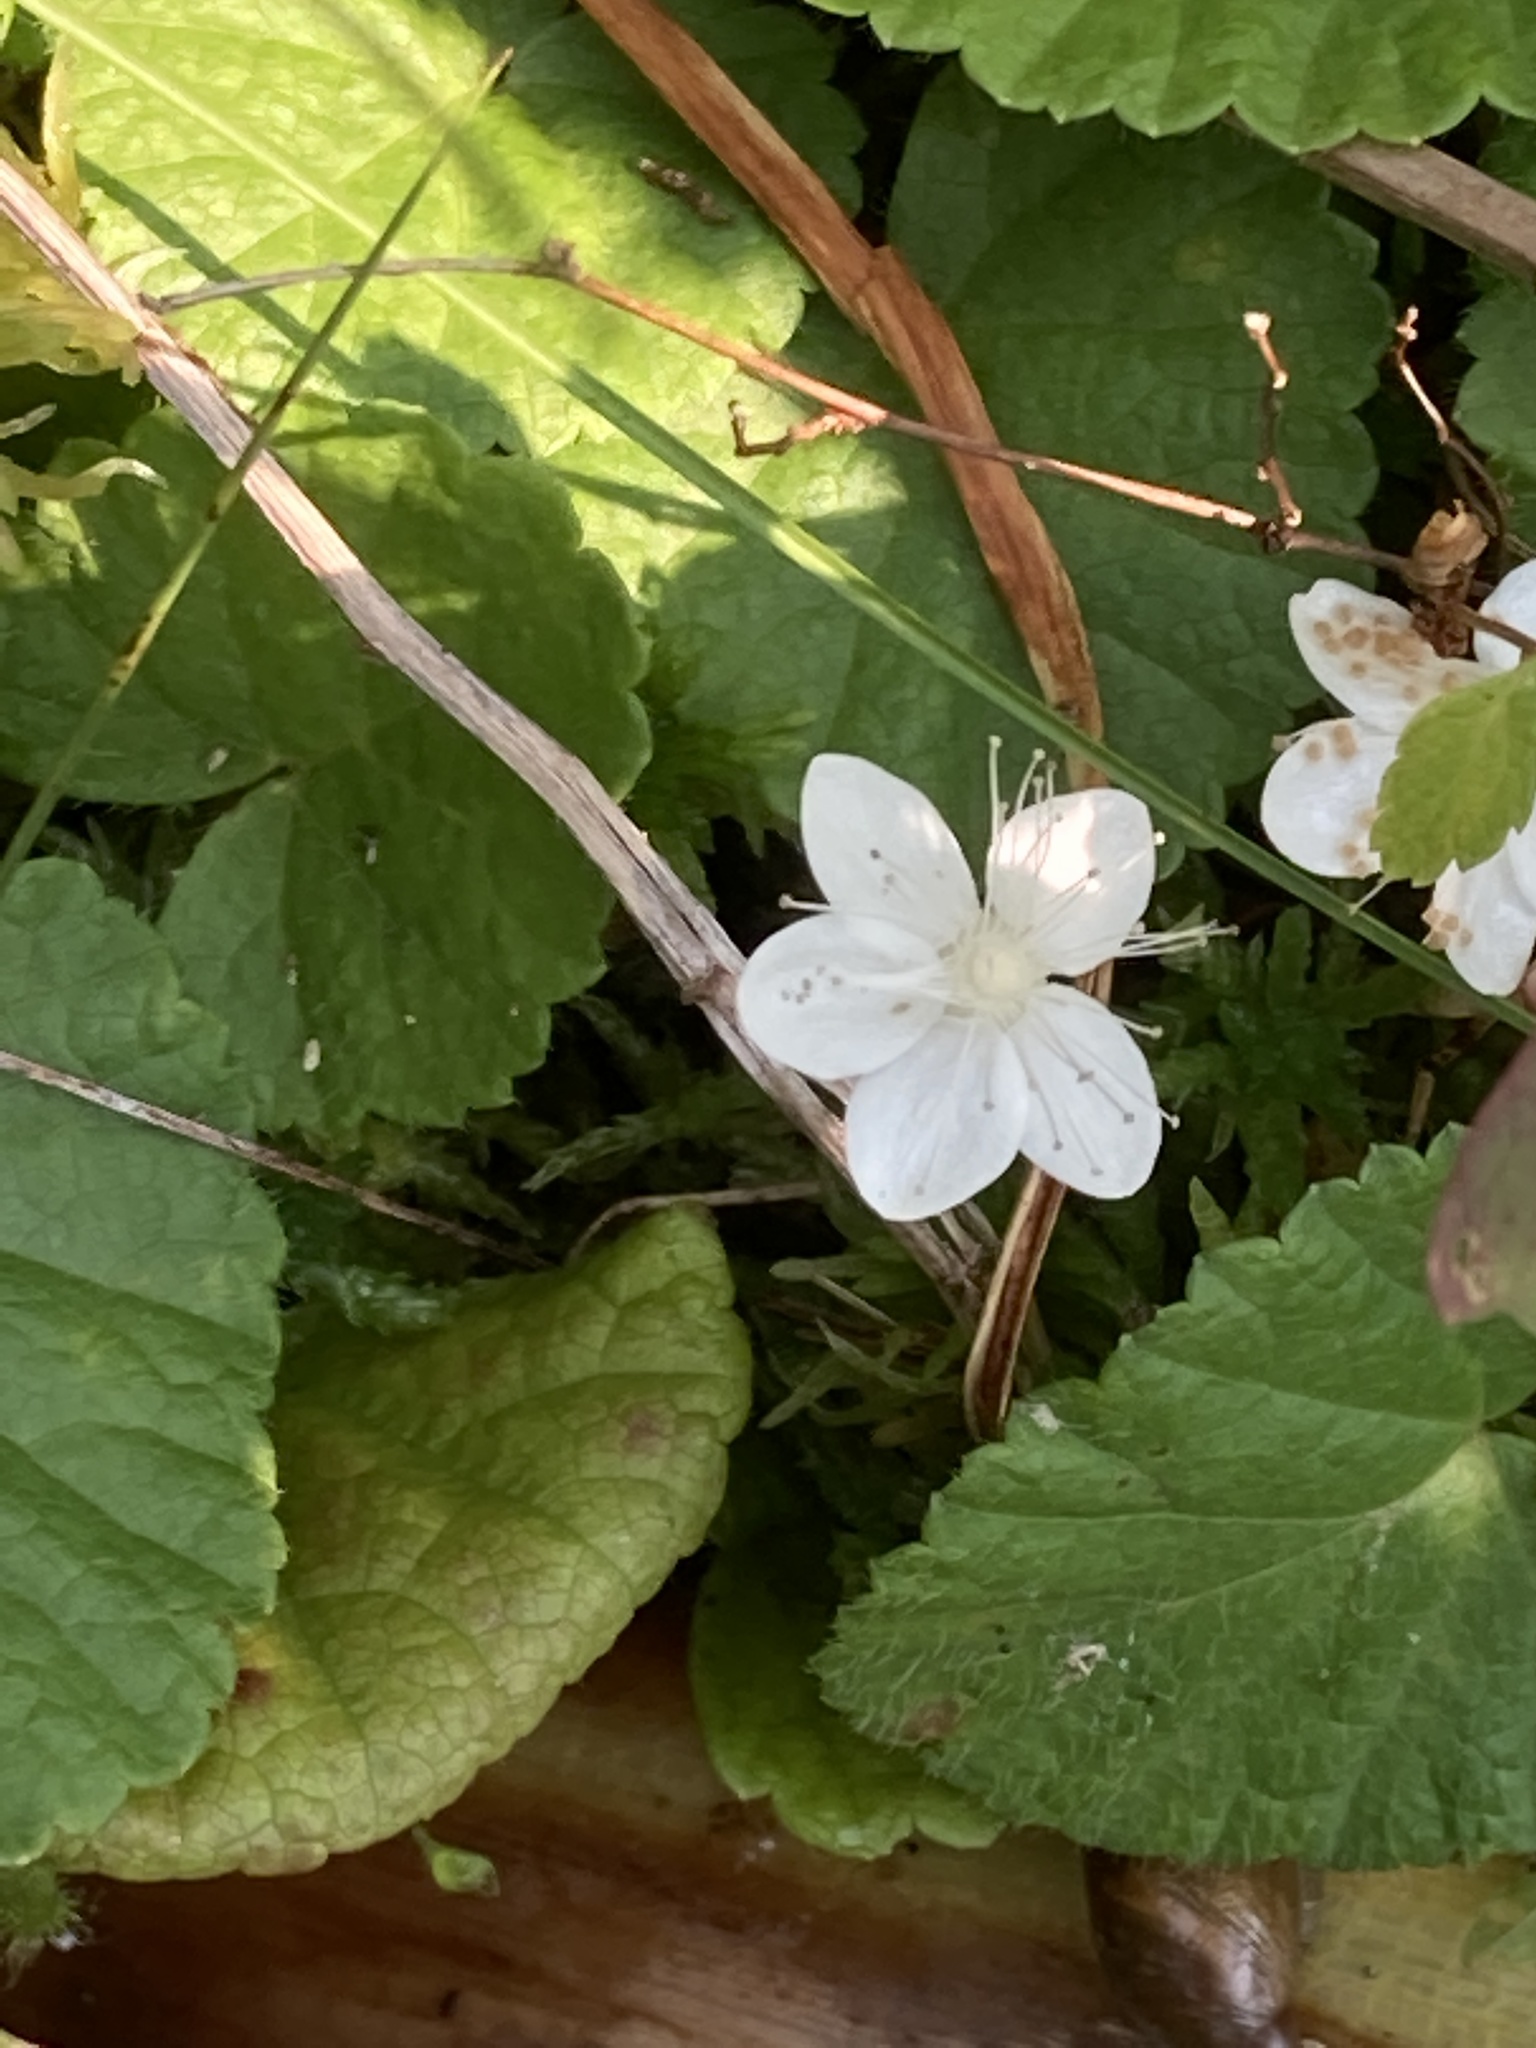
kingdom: Plantae
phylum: Tracheophyta
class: Magnoliopsida
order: Rosales
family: Rosaceae
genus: Dalibarda
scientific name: Dalibarda repens
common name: Dewdrop
